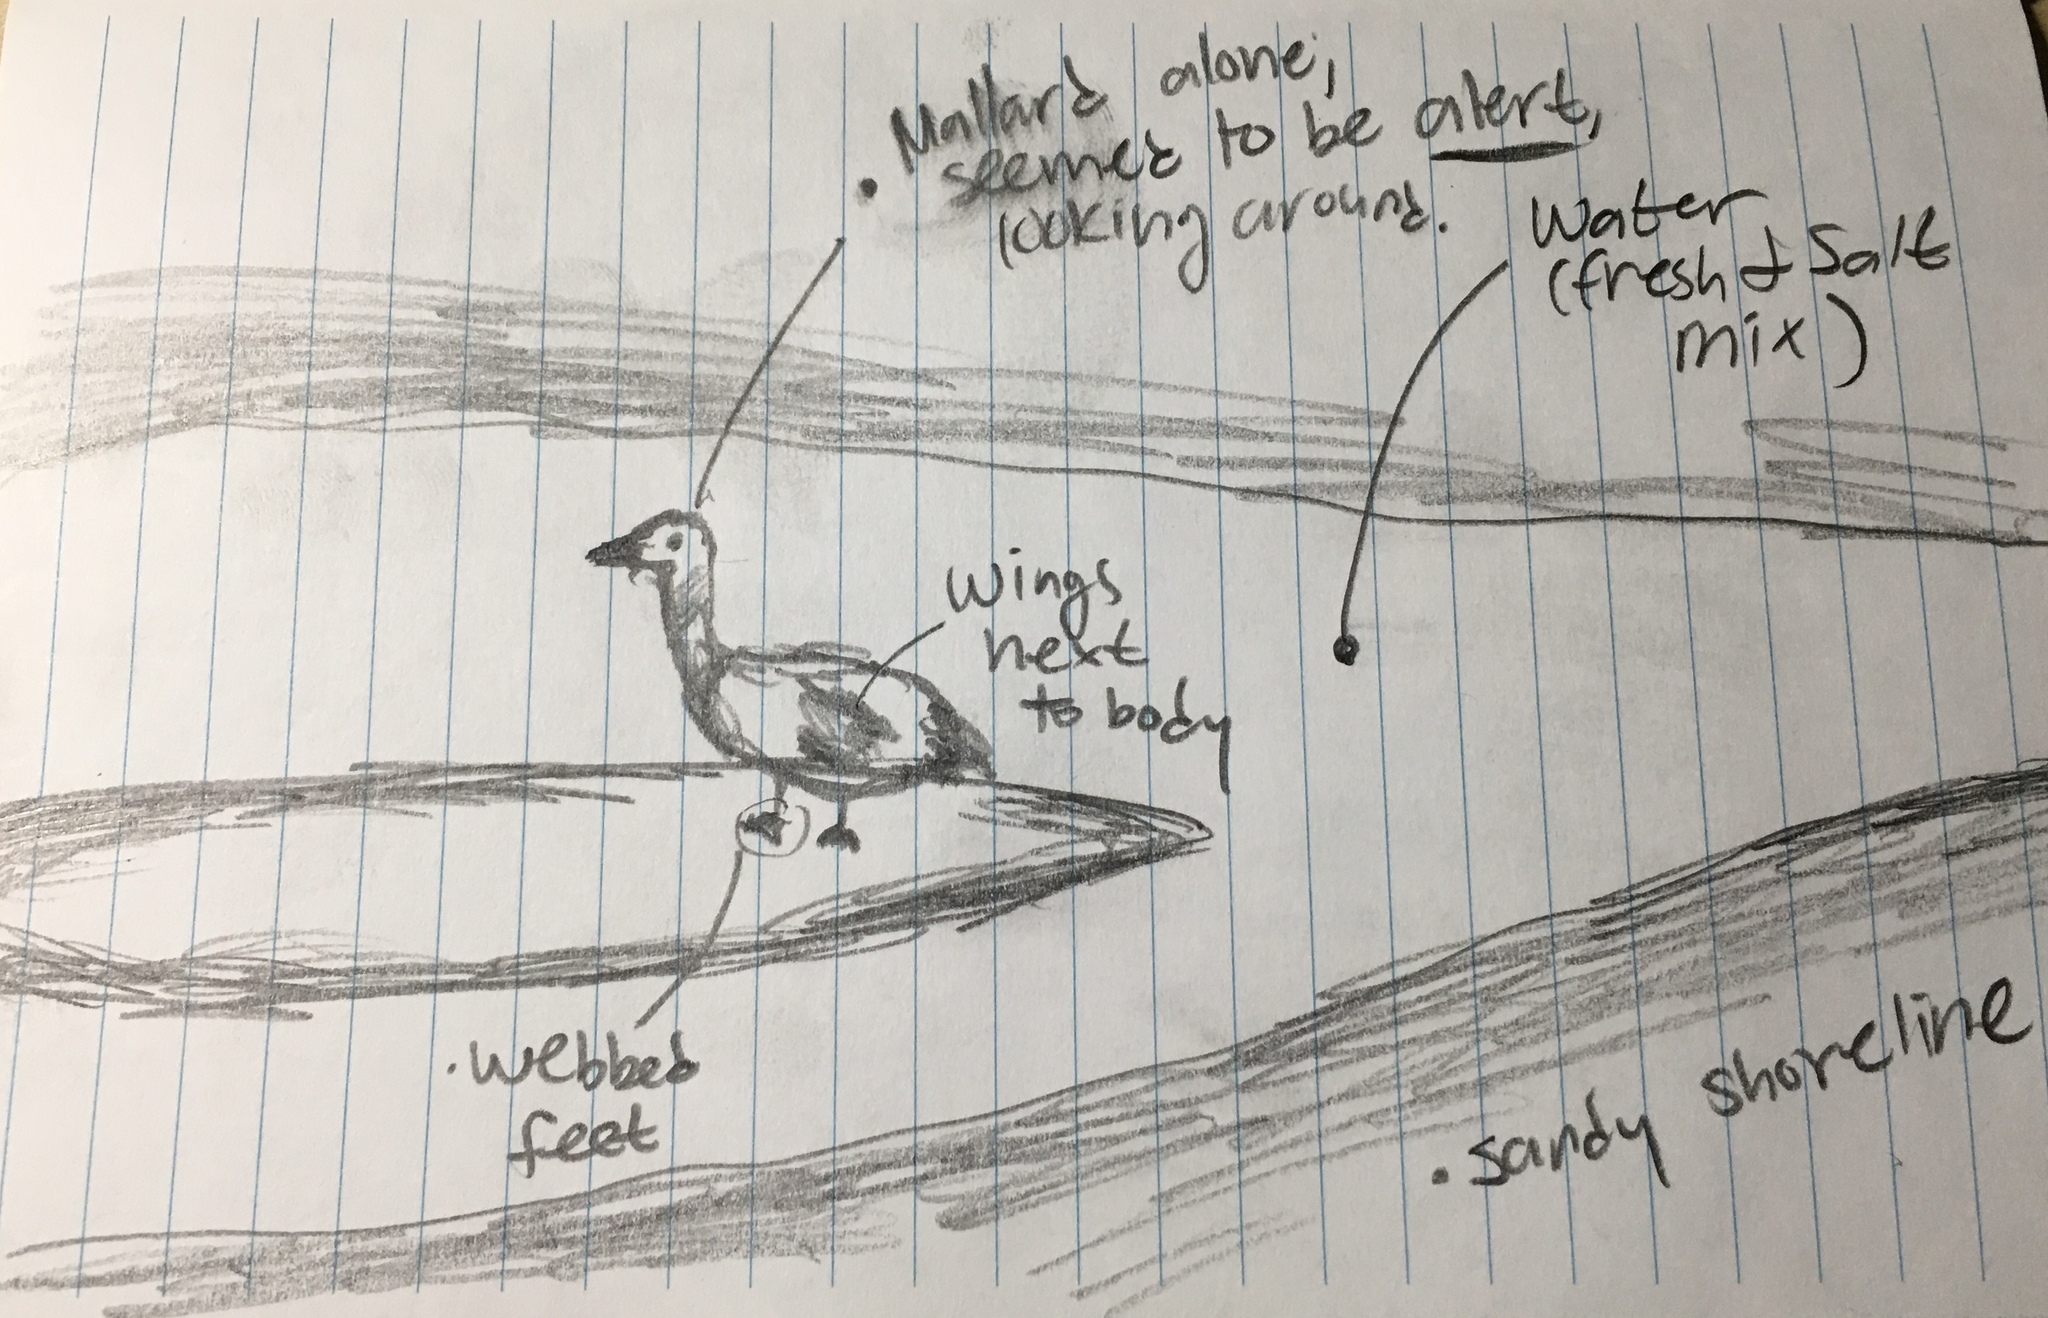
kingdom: Animalia
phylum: Chordata
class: Aves
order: Anseriformes
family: Anatidae
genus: Anas
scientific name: Anas platyrhynchos
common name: Mallard
